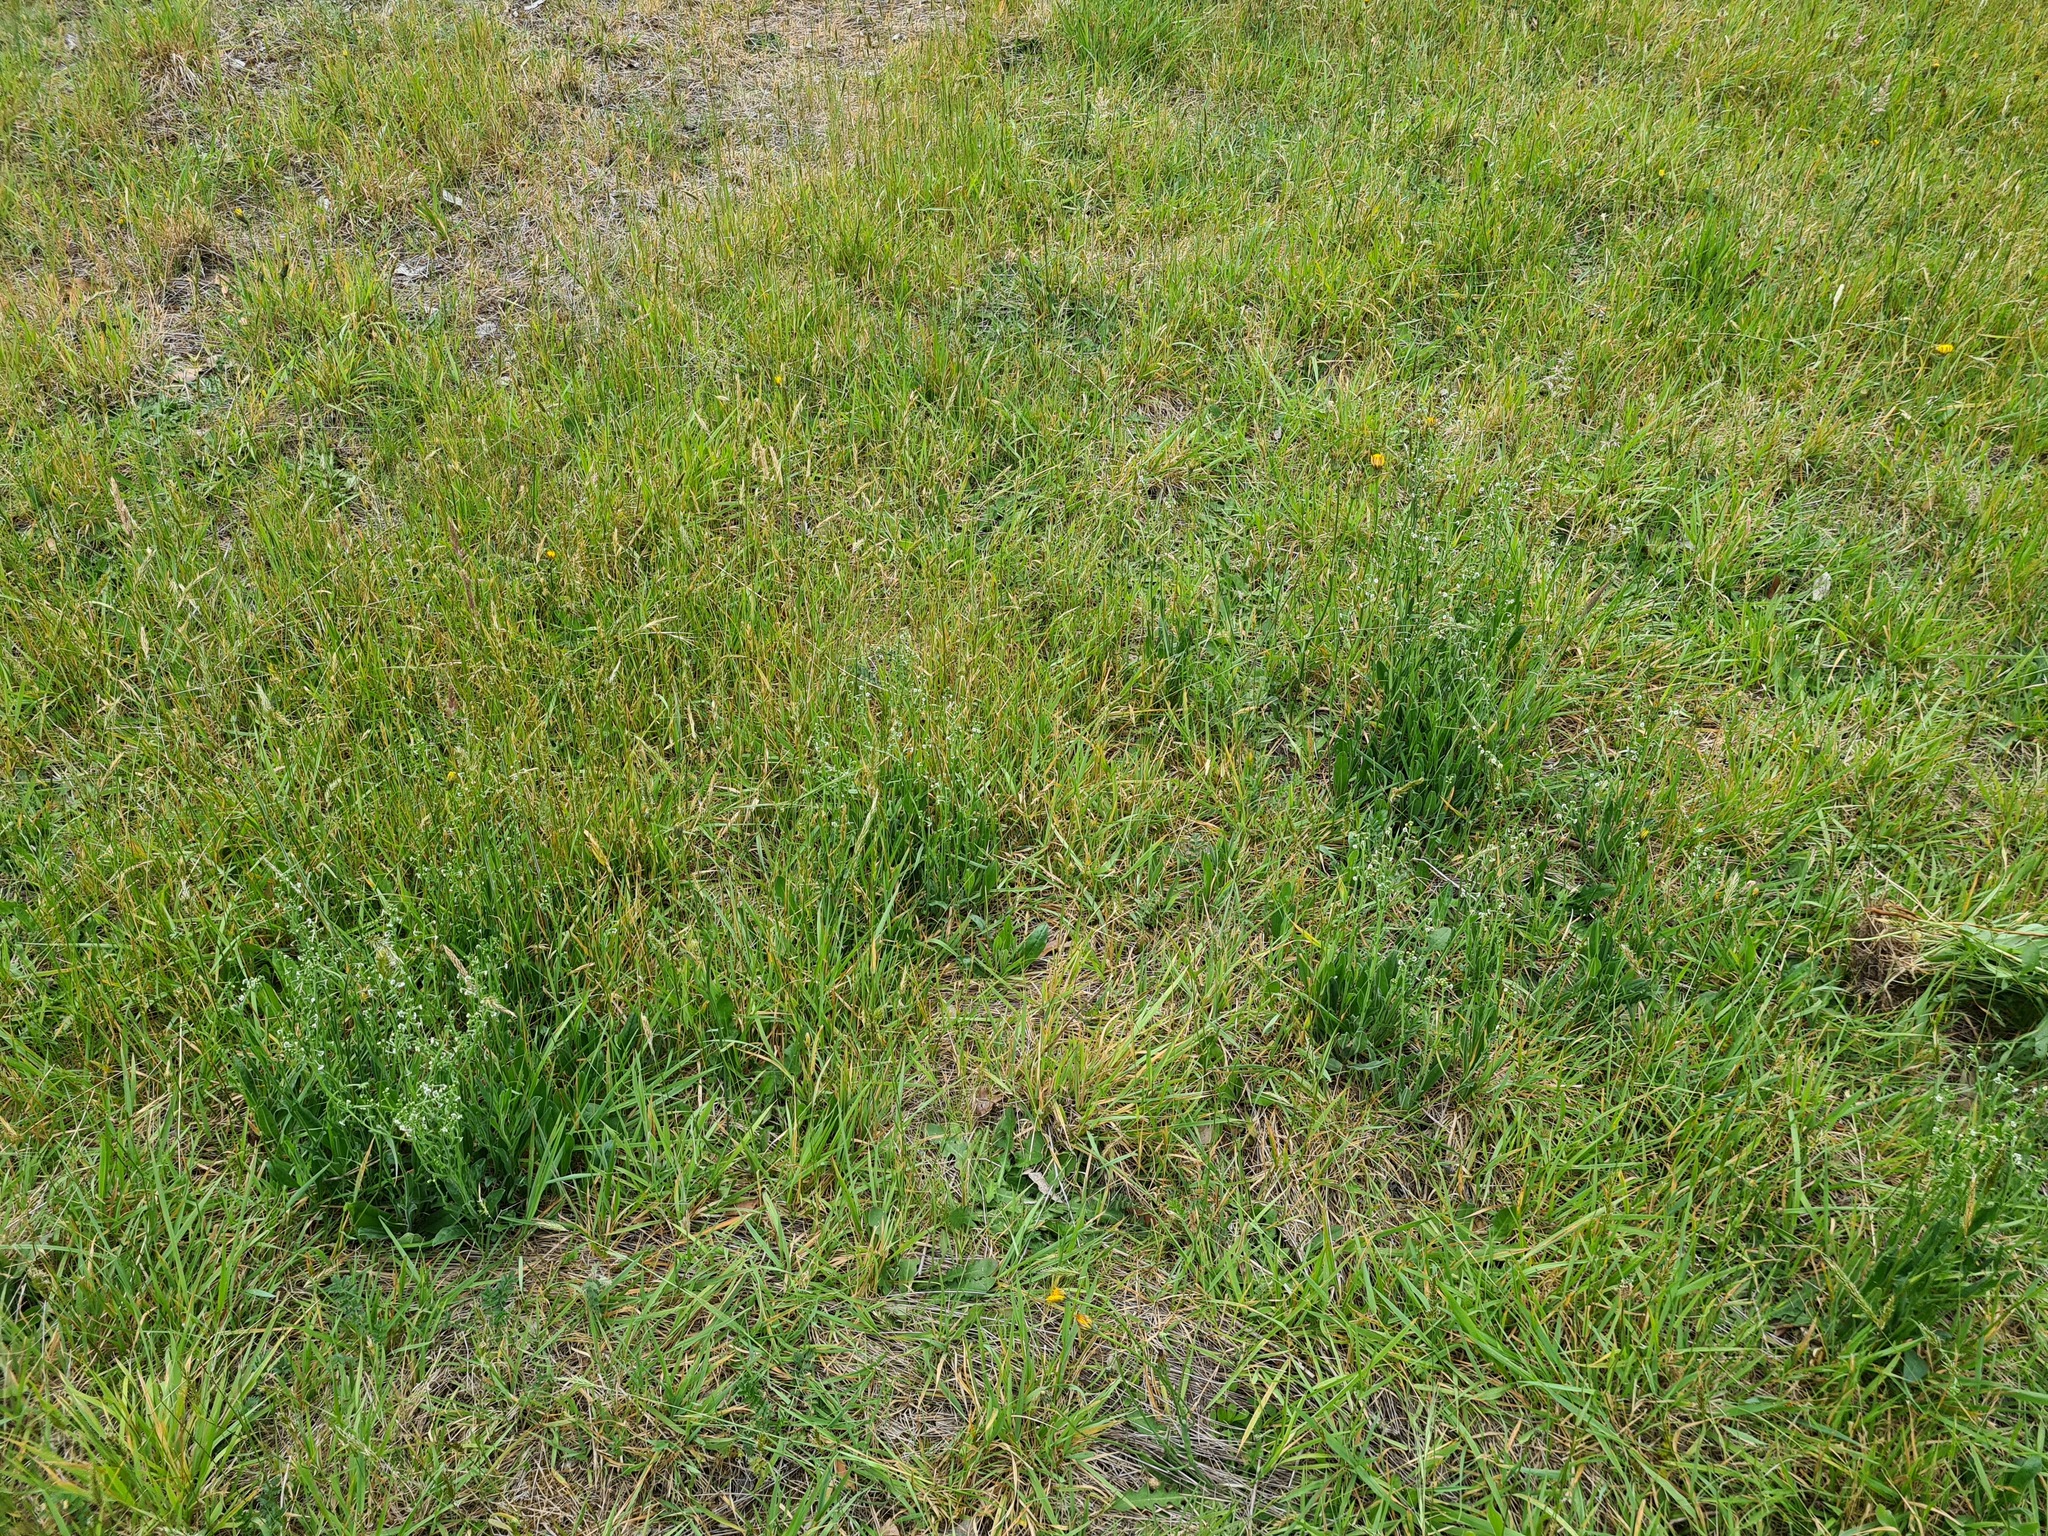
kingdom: Plantae
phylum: Tracheophyta
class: Magnoliopsida
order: Boraginales
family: Boraginaceae
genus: Hackelia
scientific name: Hackelia suaveolens
